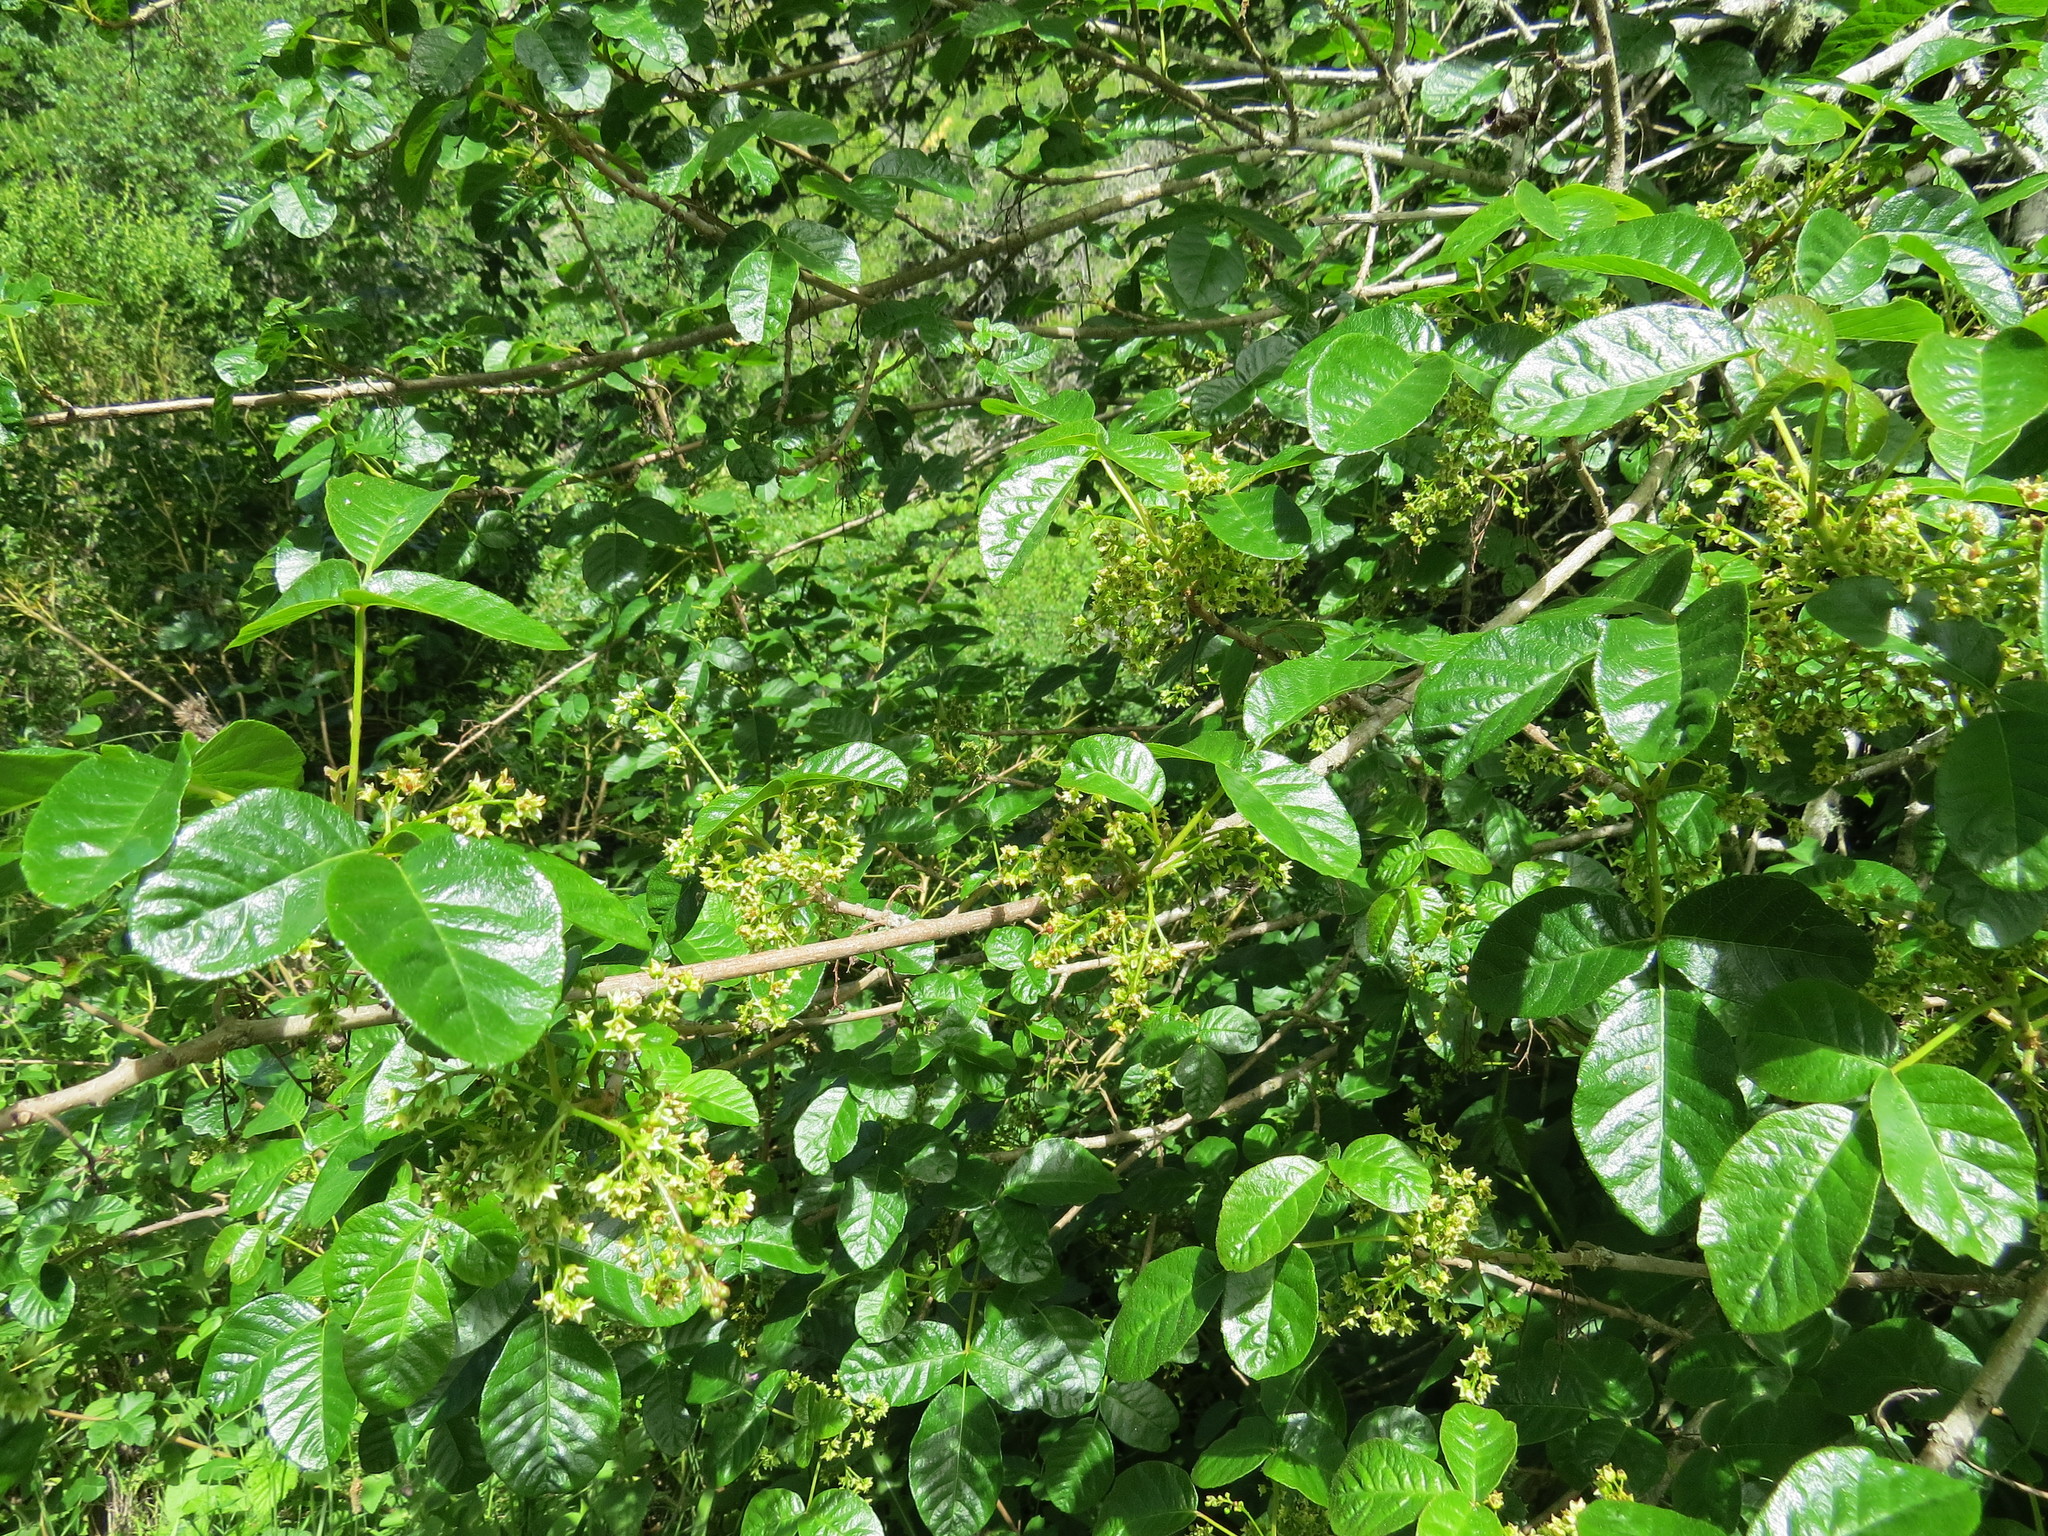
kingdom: Plantae
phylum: Tracheophyta
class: Magnoliopsida
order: Sapindales
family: Anacardiaceae
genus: Toxicodendron
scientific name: Toxicodendron diversilobum
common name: Pacific poison-oak
